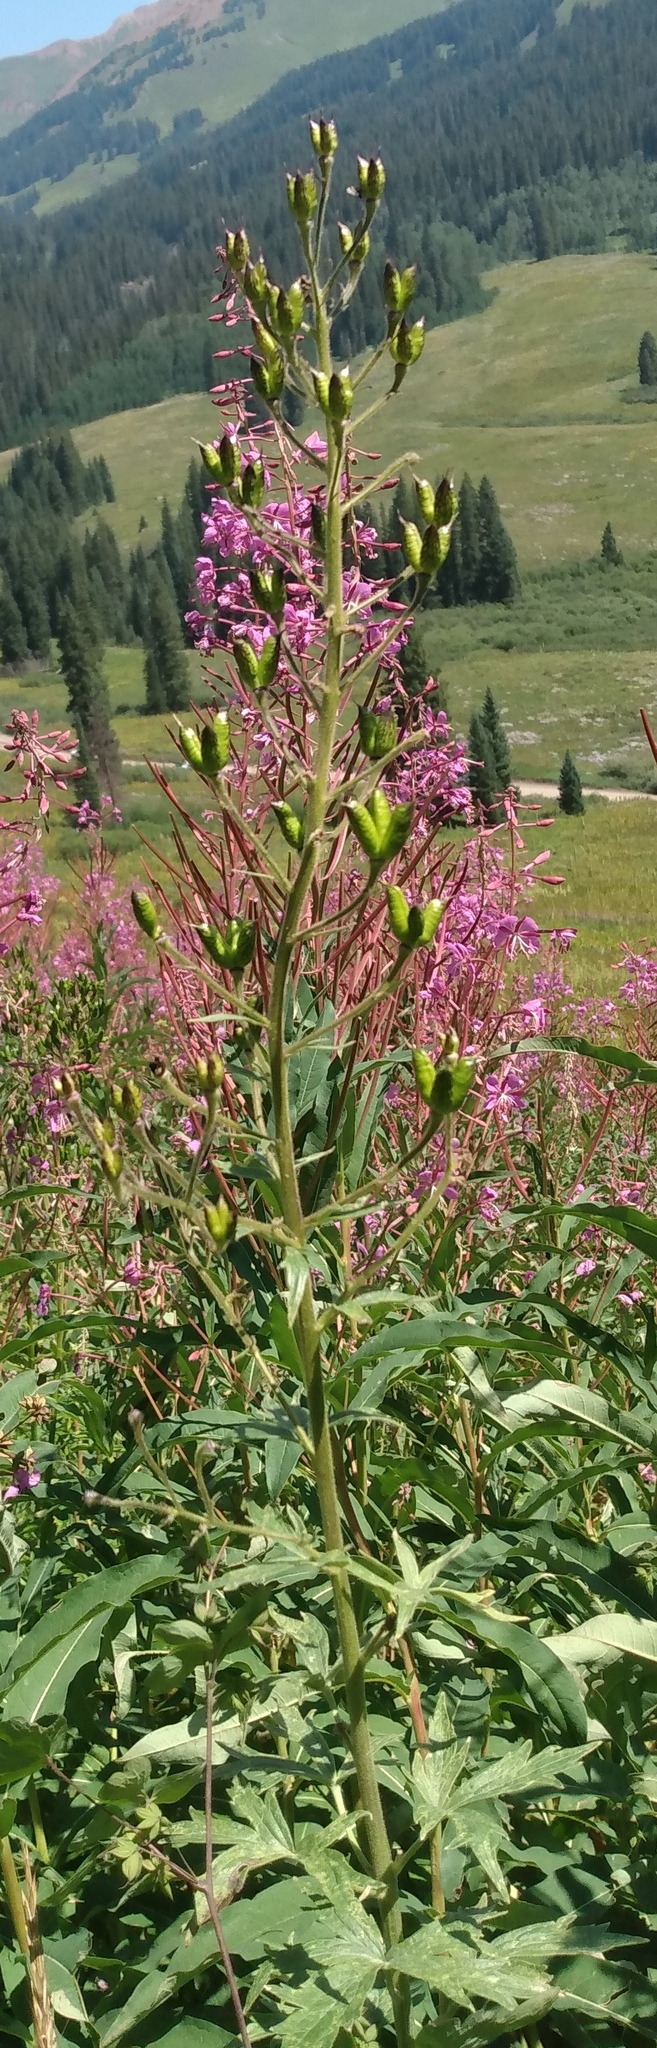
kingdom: Plantae
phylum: Tracheophyta
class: Magnoliopsida
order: Ranunculales
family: Ranunculaceae
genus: Delphinium
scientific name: Delphinium barbeyi
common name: Subalpine larkspur
